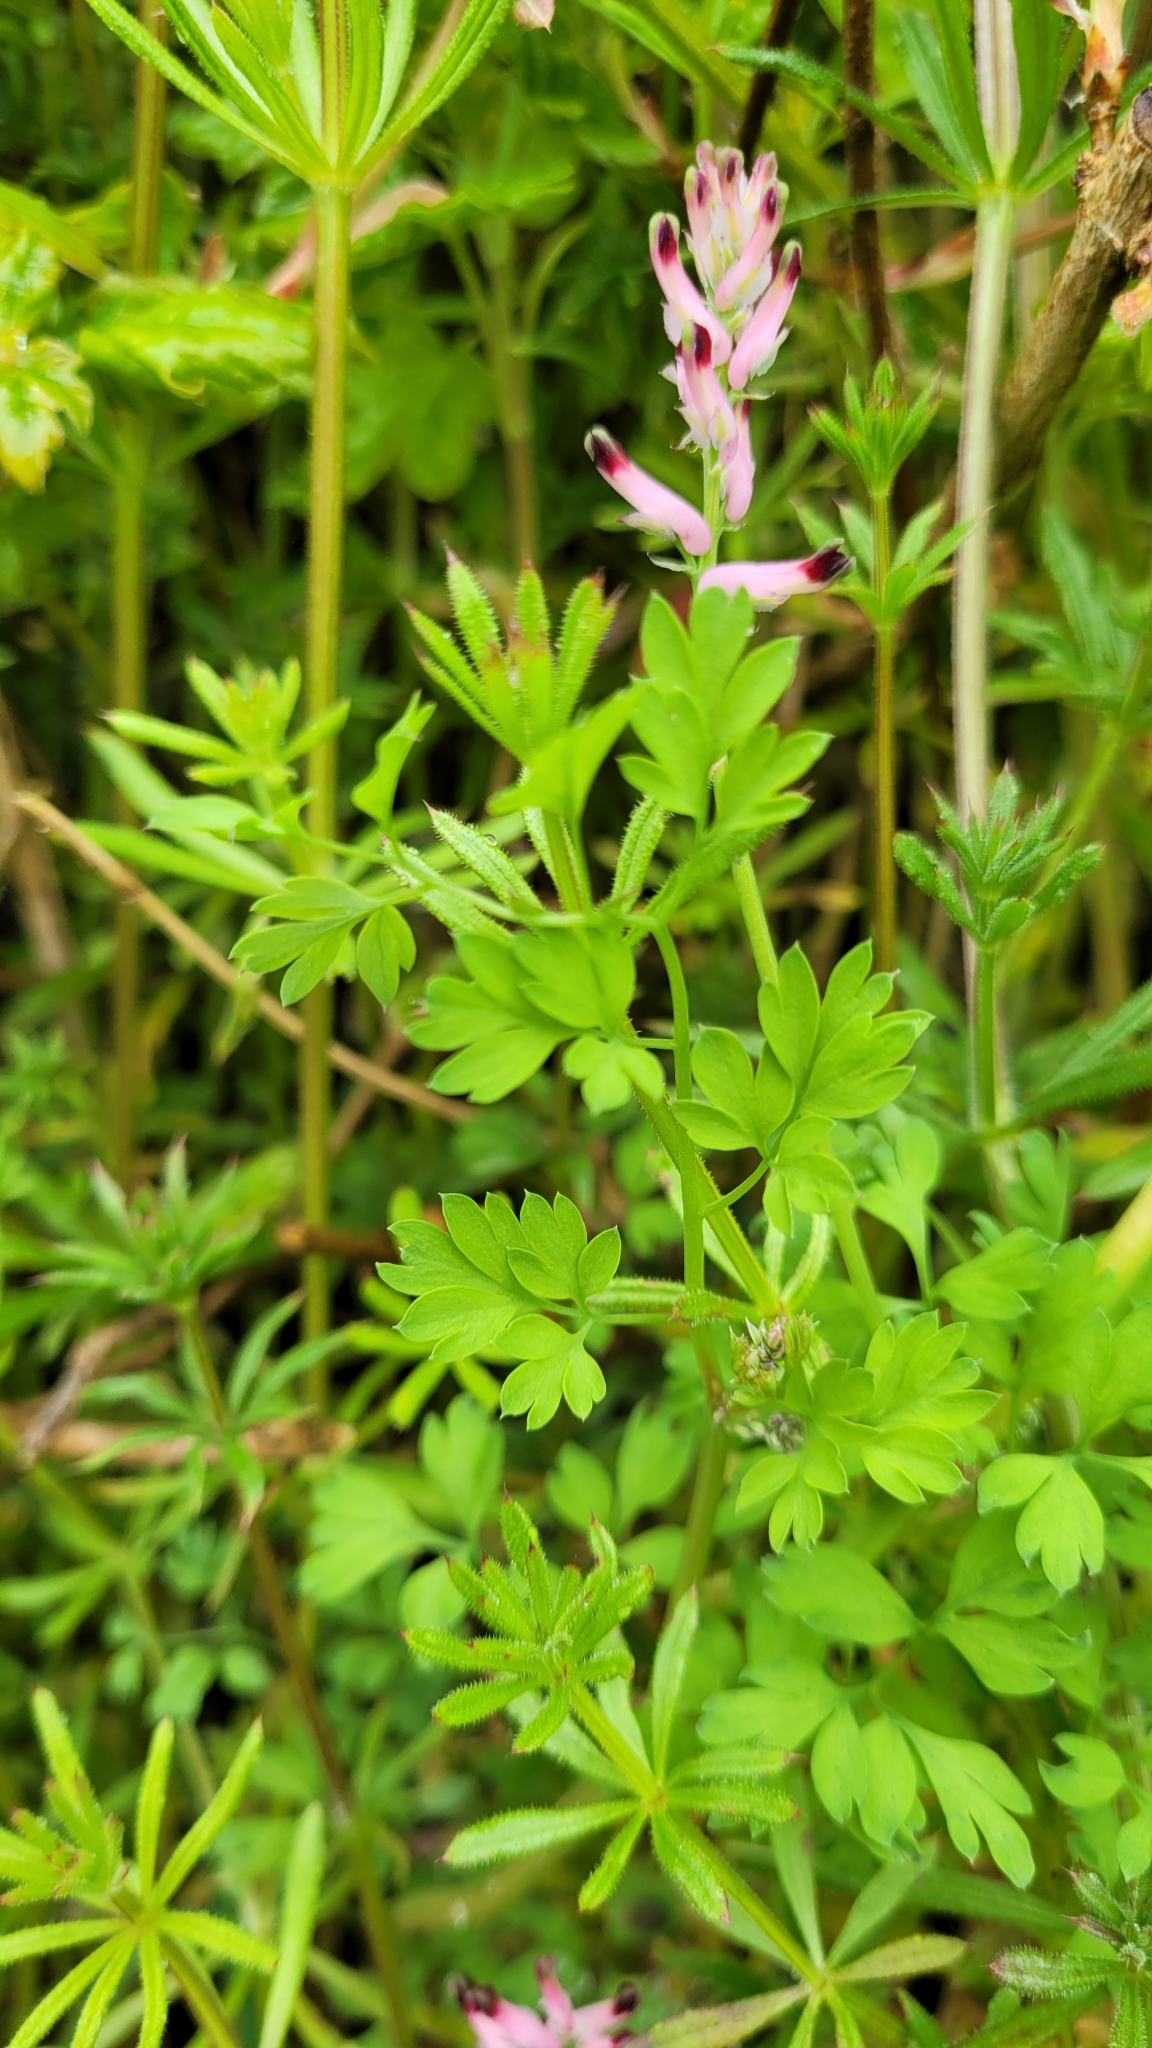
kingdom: Plantae
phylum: Tracheophyta
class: Magnoliopsida
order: Ranunculales
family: Papaveraceae
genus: Fumaria
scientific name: Fumaria muralis
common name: Common ramping-fumitory
